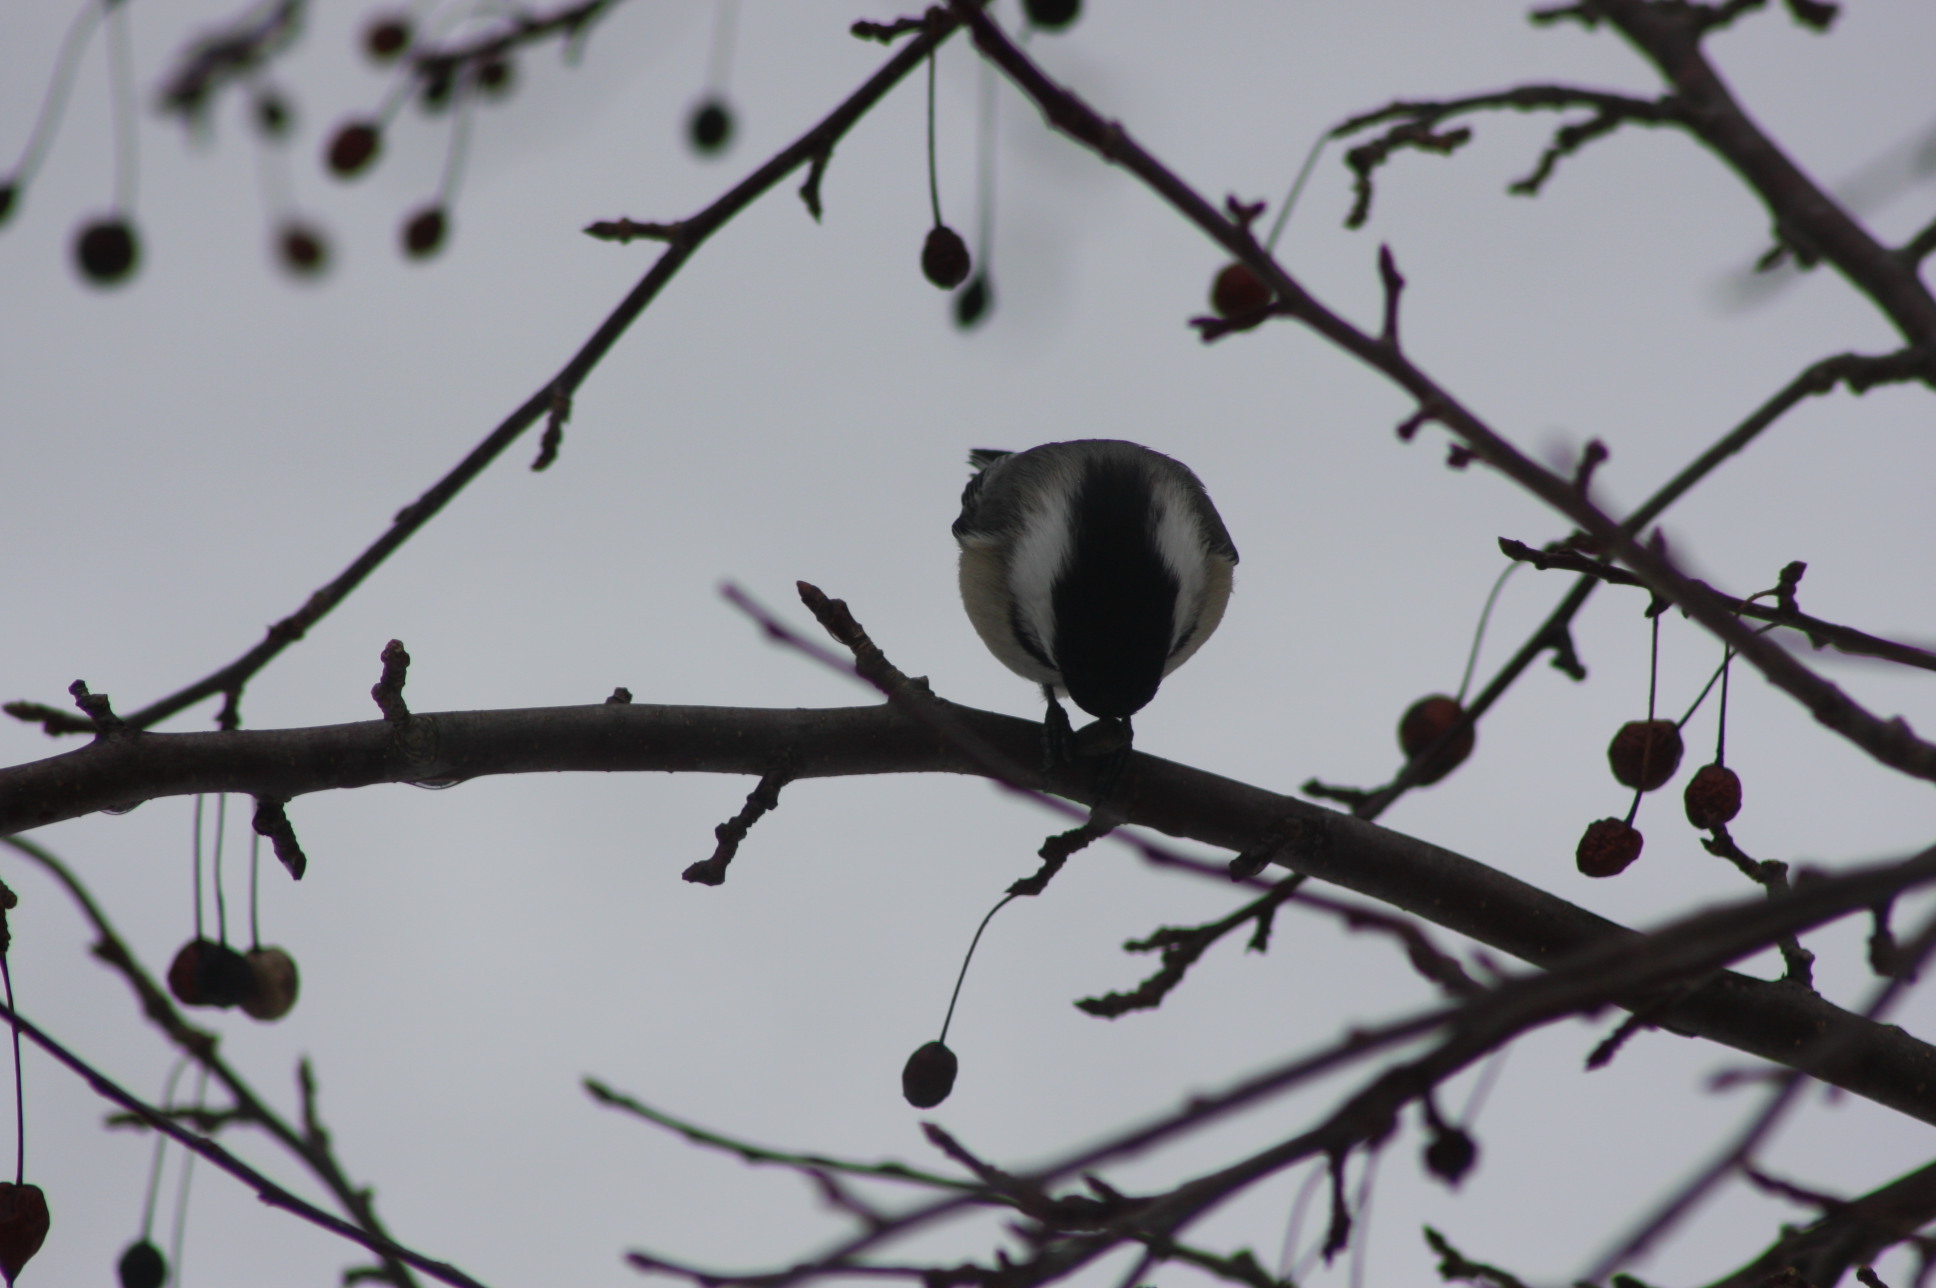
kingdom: Animalia
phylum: Chordata
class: Aves
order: Passeriformes
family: Paridae
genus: Poecile
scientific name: Poecile atricapillus
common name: Black-capped chickadee
